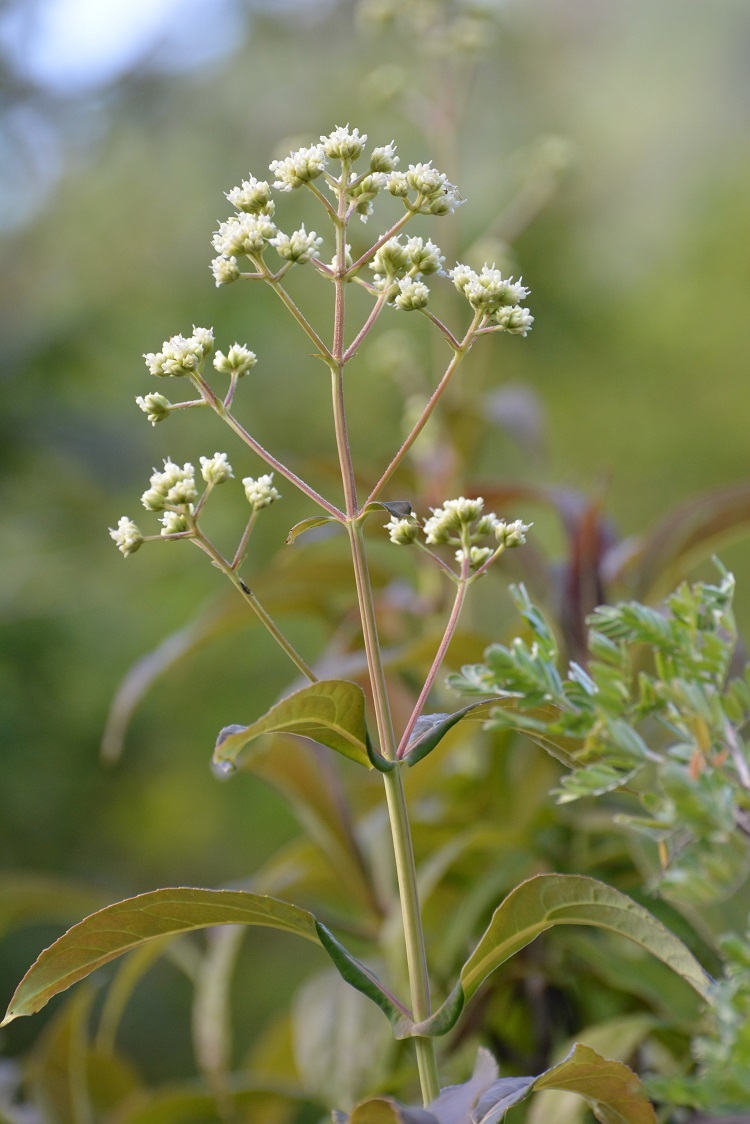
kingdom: Plantae
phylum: Tracheophyta
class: Magnoliopsida
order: Asterales
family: Asteraceae
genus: Desmanthodium
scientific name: Desmanthodium perfoliatum
